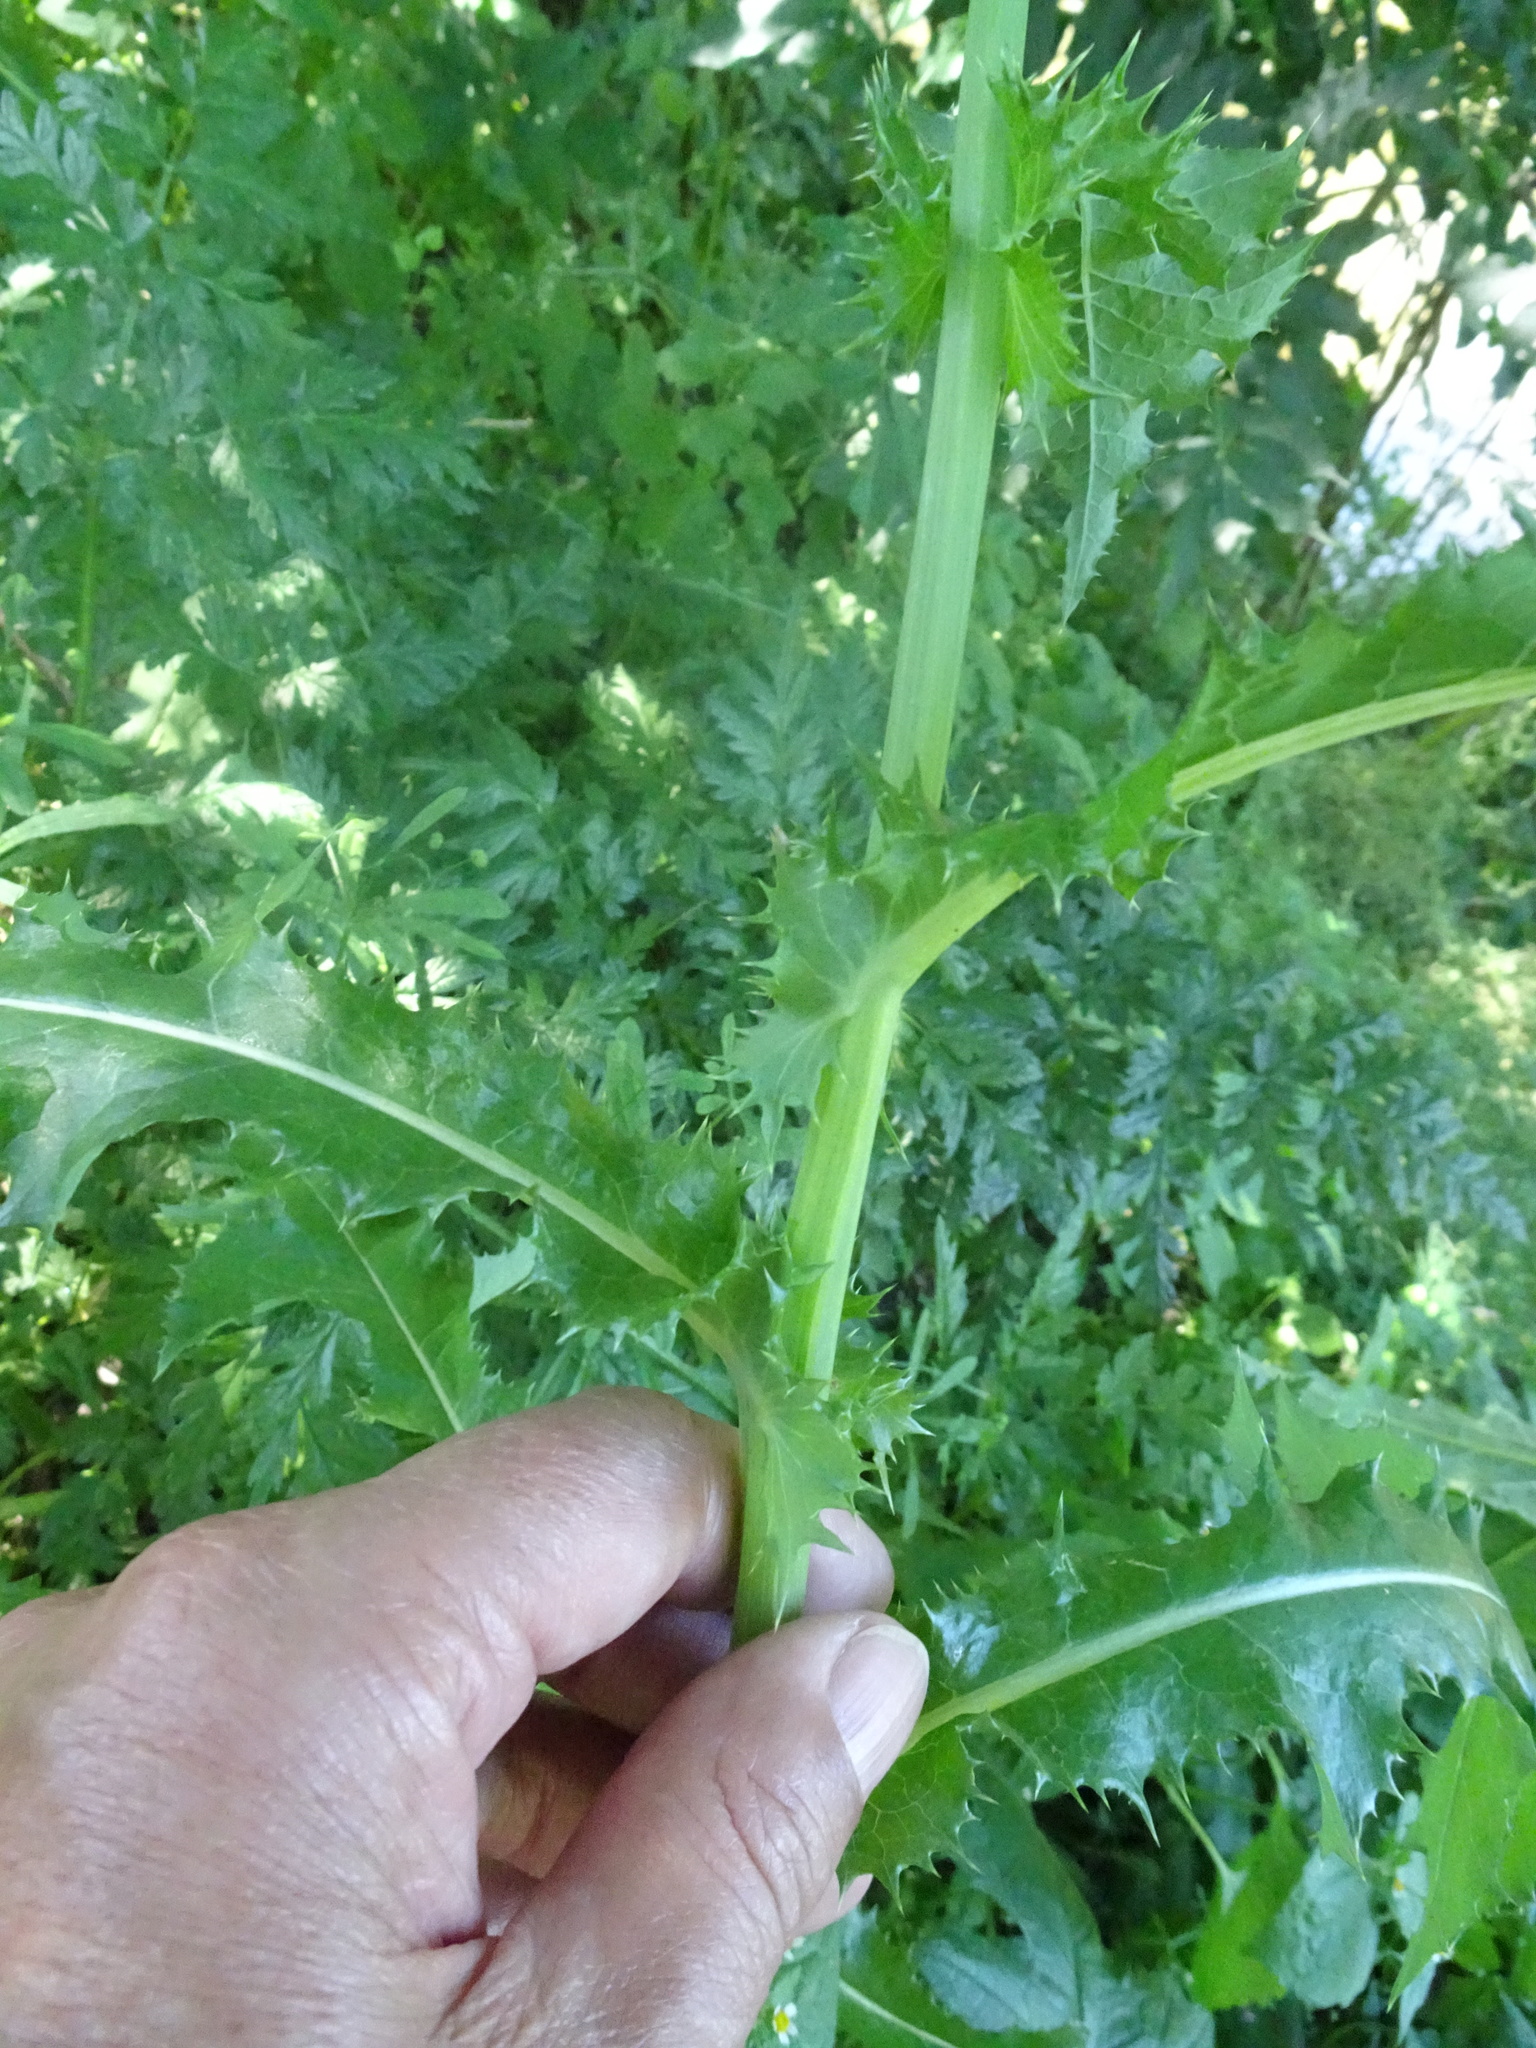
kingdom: Plantae
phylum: Tracheophyta
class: Magnoliopsida
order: Asterales
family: Asteraceae
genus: Sonchus
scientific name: Sonchus asper
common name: Prickly sow-thistle
